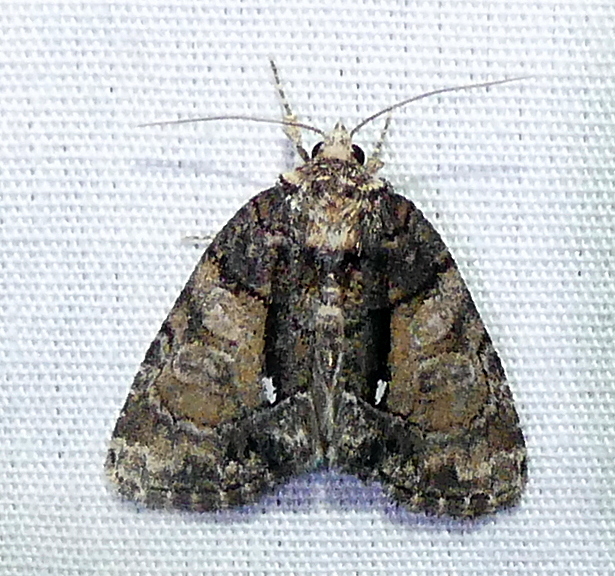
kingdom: Animalia
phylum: Arthropoda
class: Insecta
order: Lepidoptera
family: Noctuidae
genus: Chytonix
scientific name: Chytonix palliatricula
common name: Cloaked marvel
